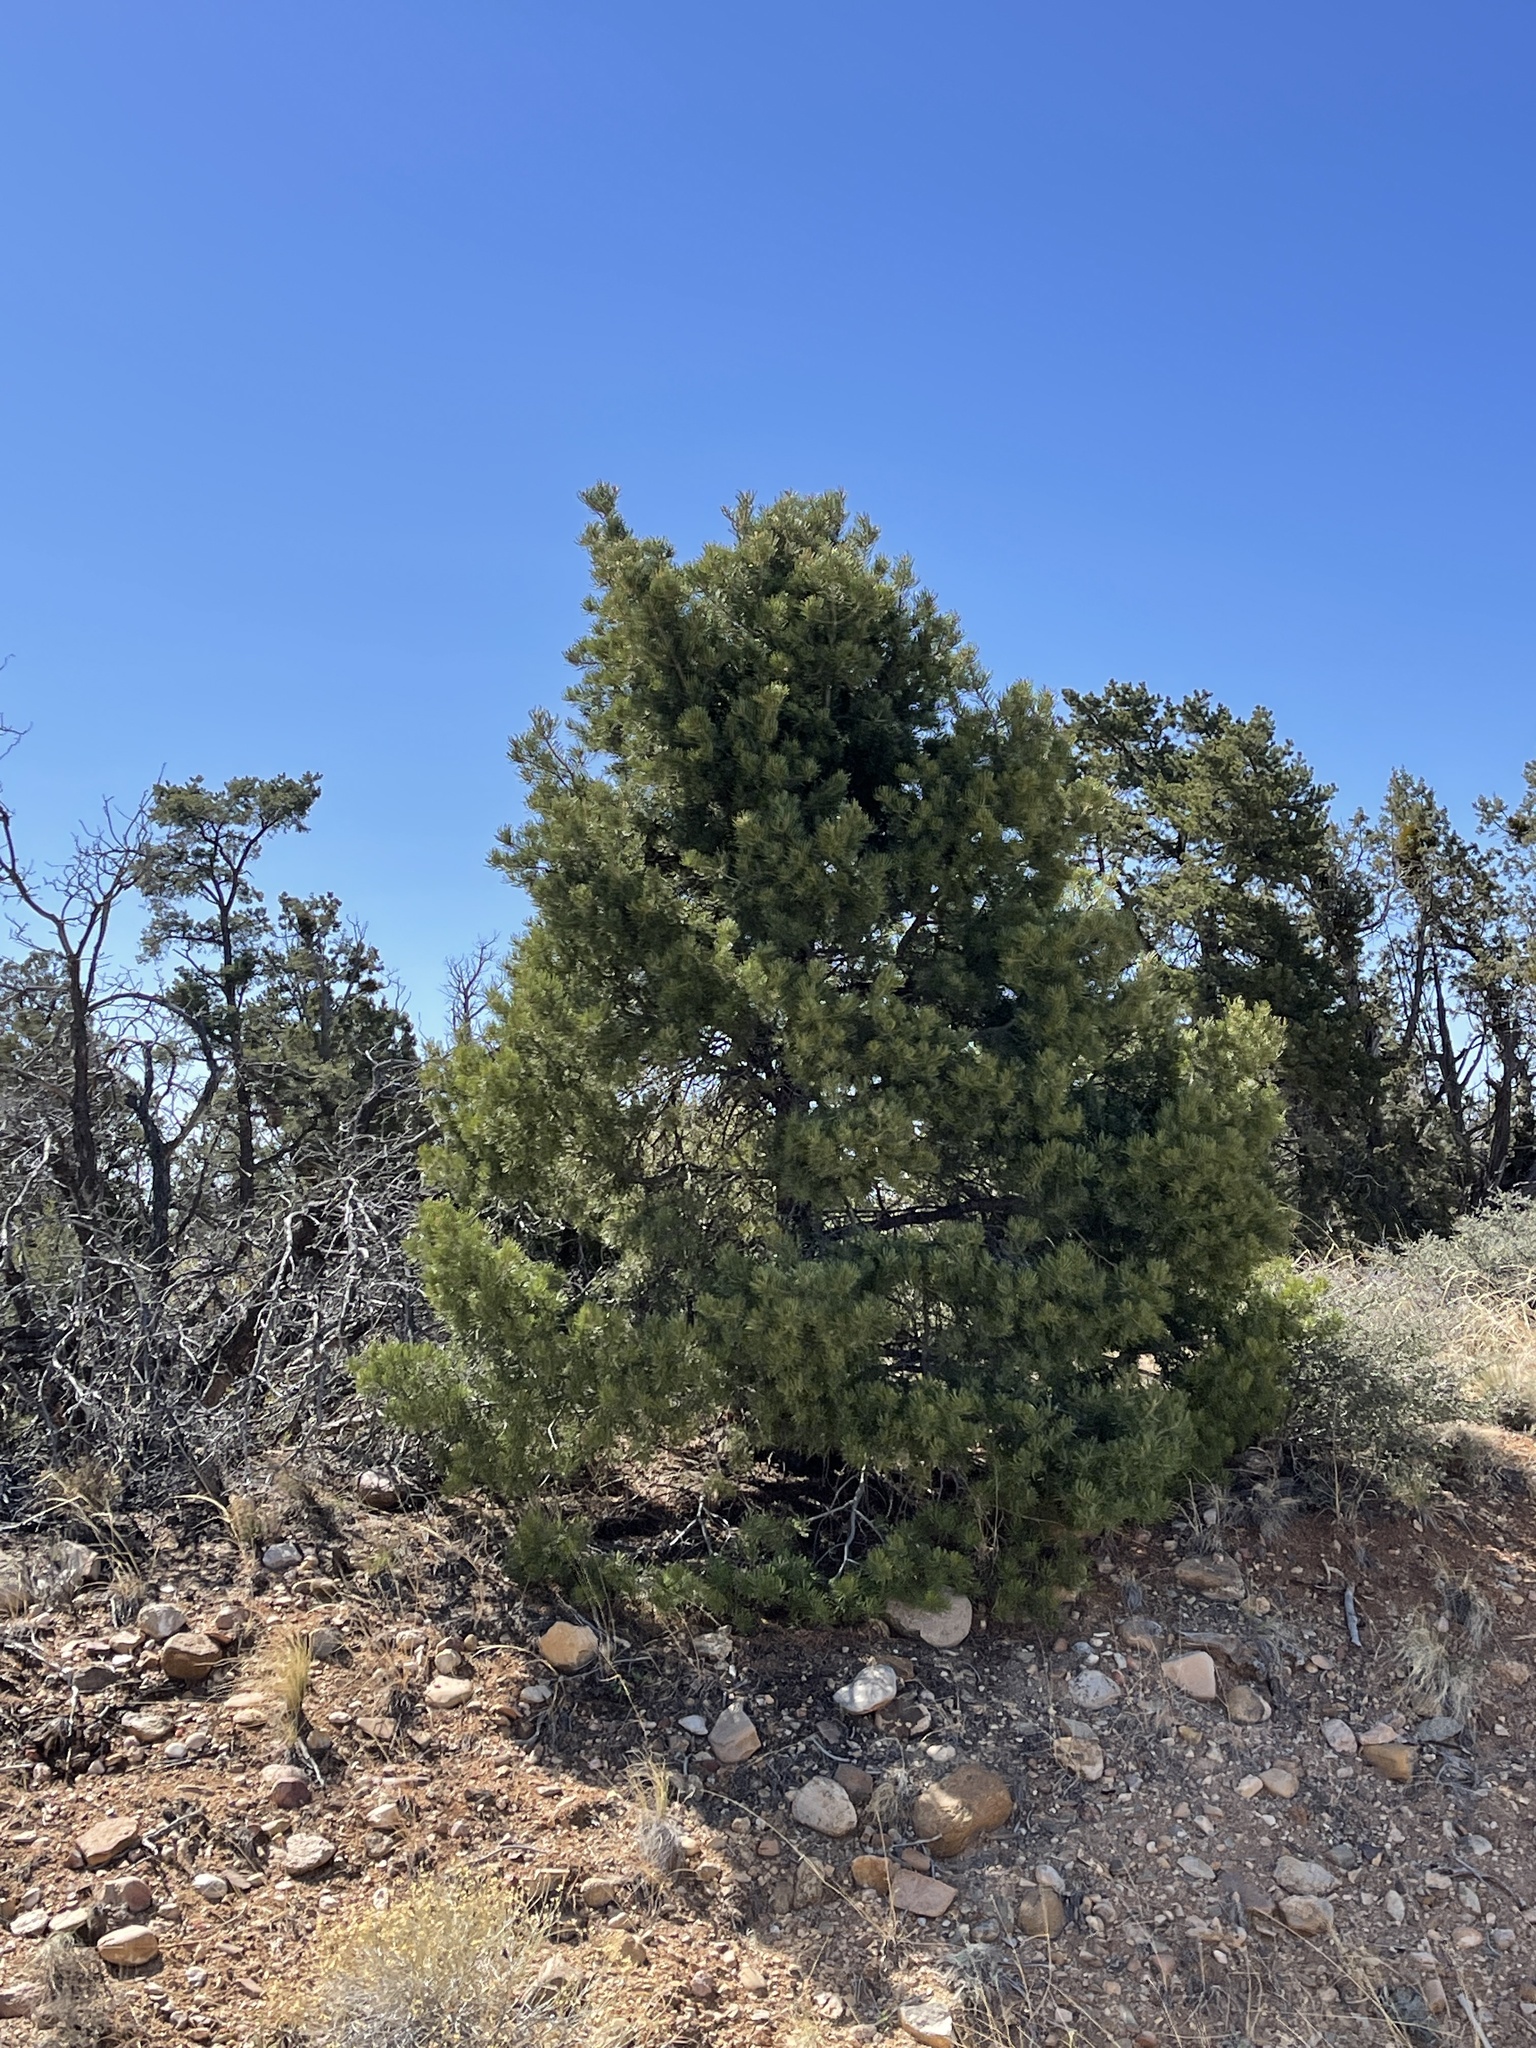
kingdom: Plantae
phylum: Tracheophyta
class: Pinopsida
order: Pinales
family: Pinaceae
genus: Pinus
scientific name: Pinus edulis
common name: Colorado pinyon
